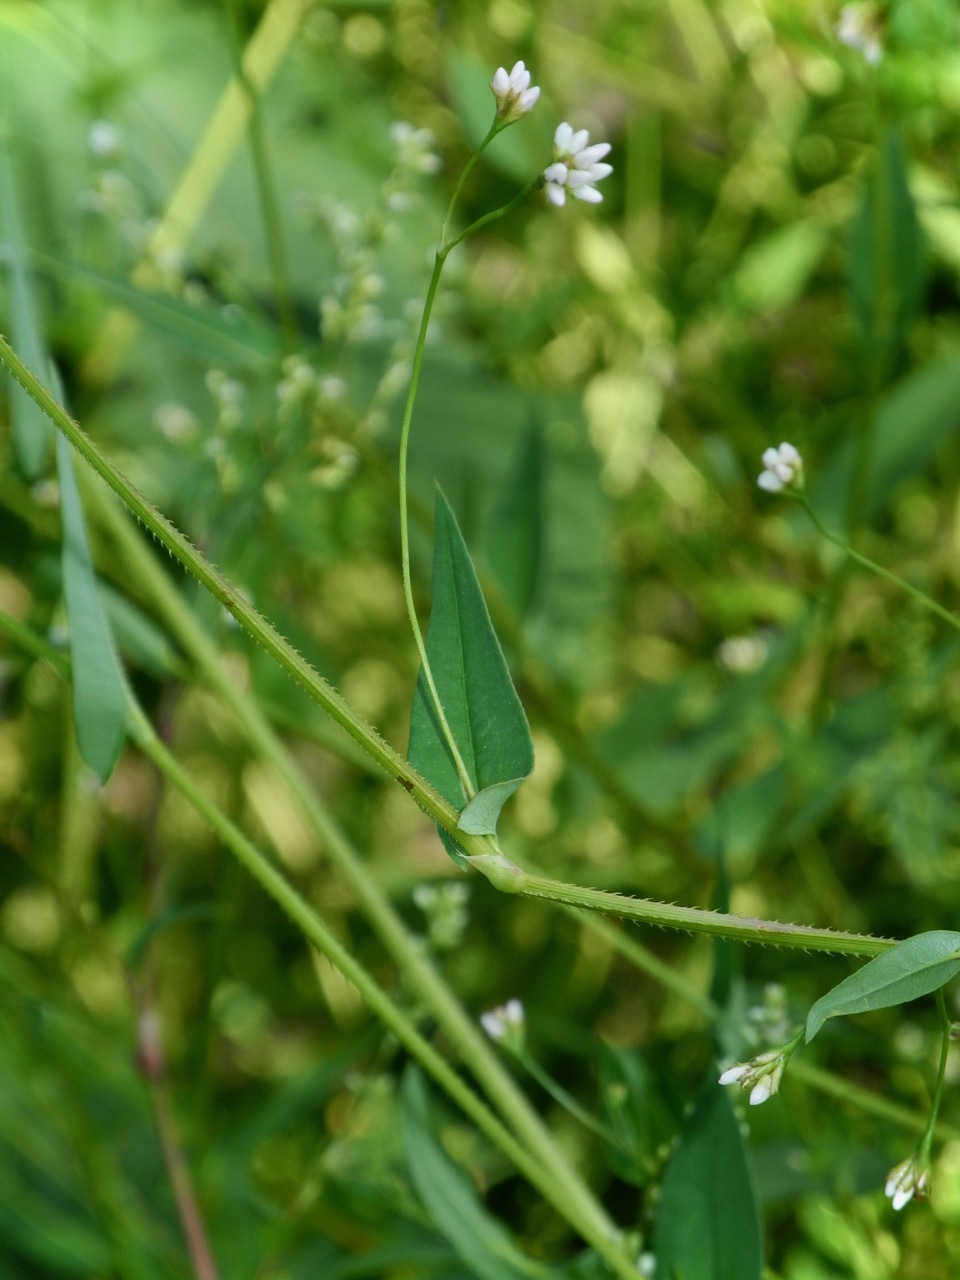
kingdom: Plantae
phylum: Tracheophyta
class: Magnoliopsida
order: Caryophyllales
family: Polygonaceae
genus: Persicaria
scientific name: Persicaria sagittata
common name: American tearthumb
